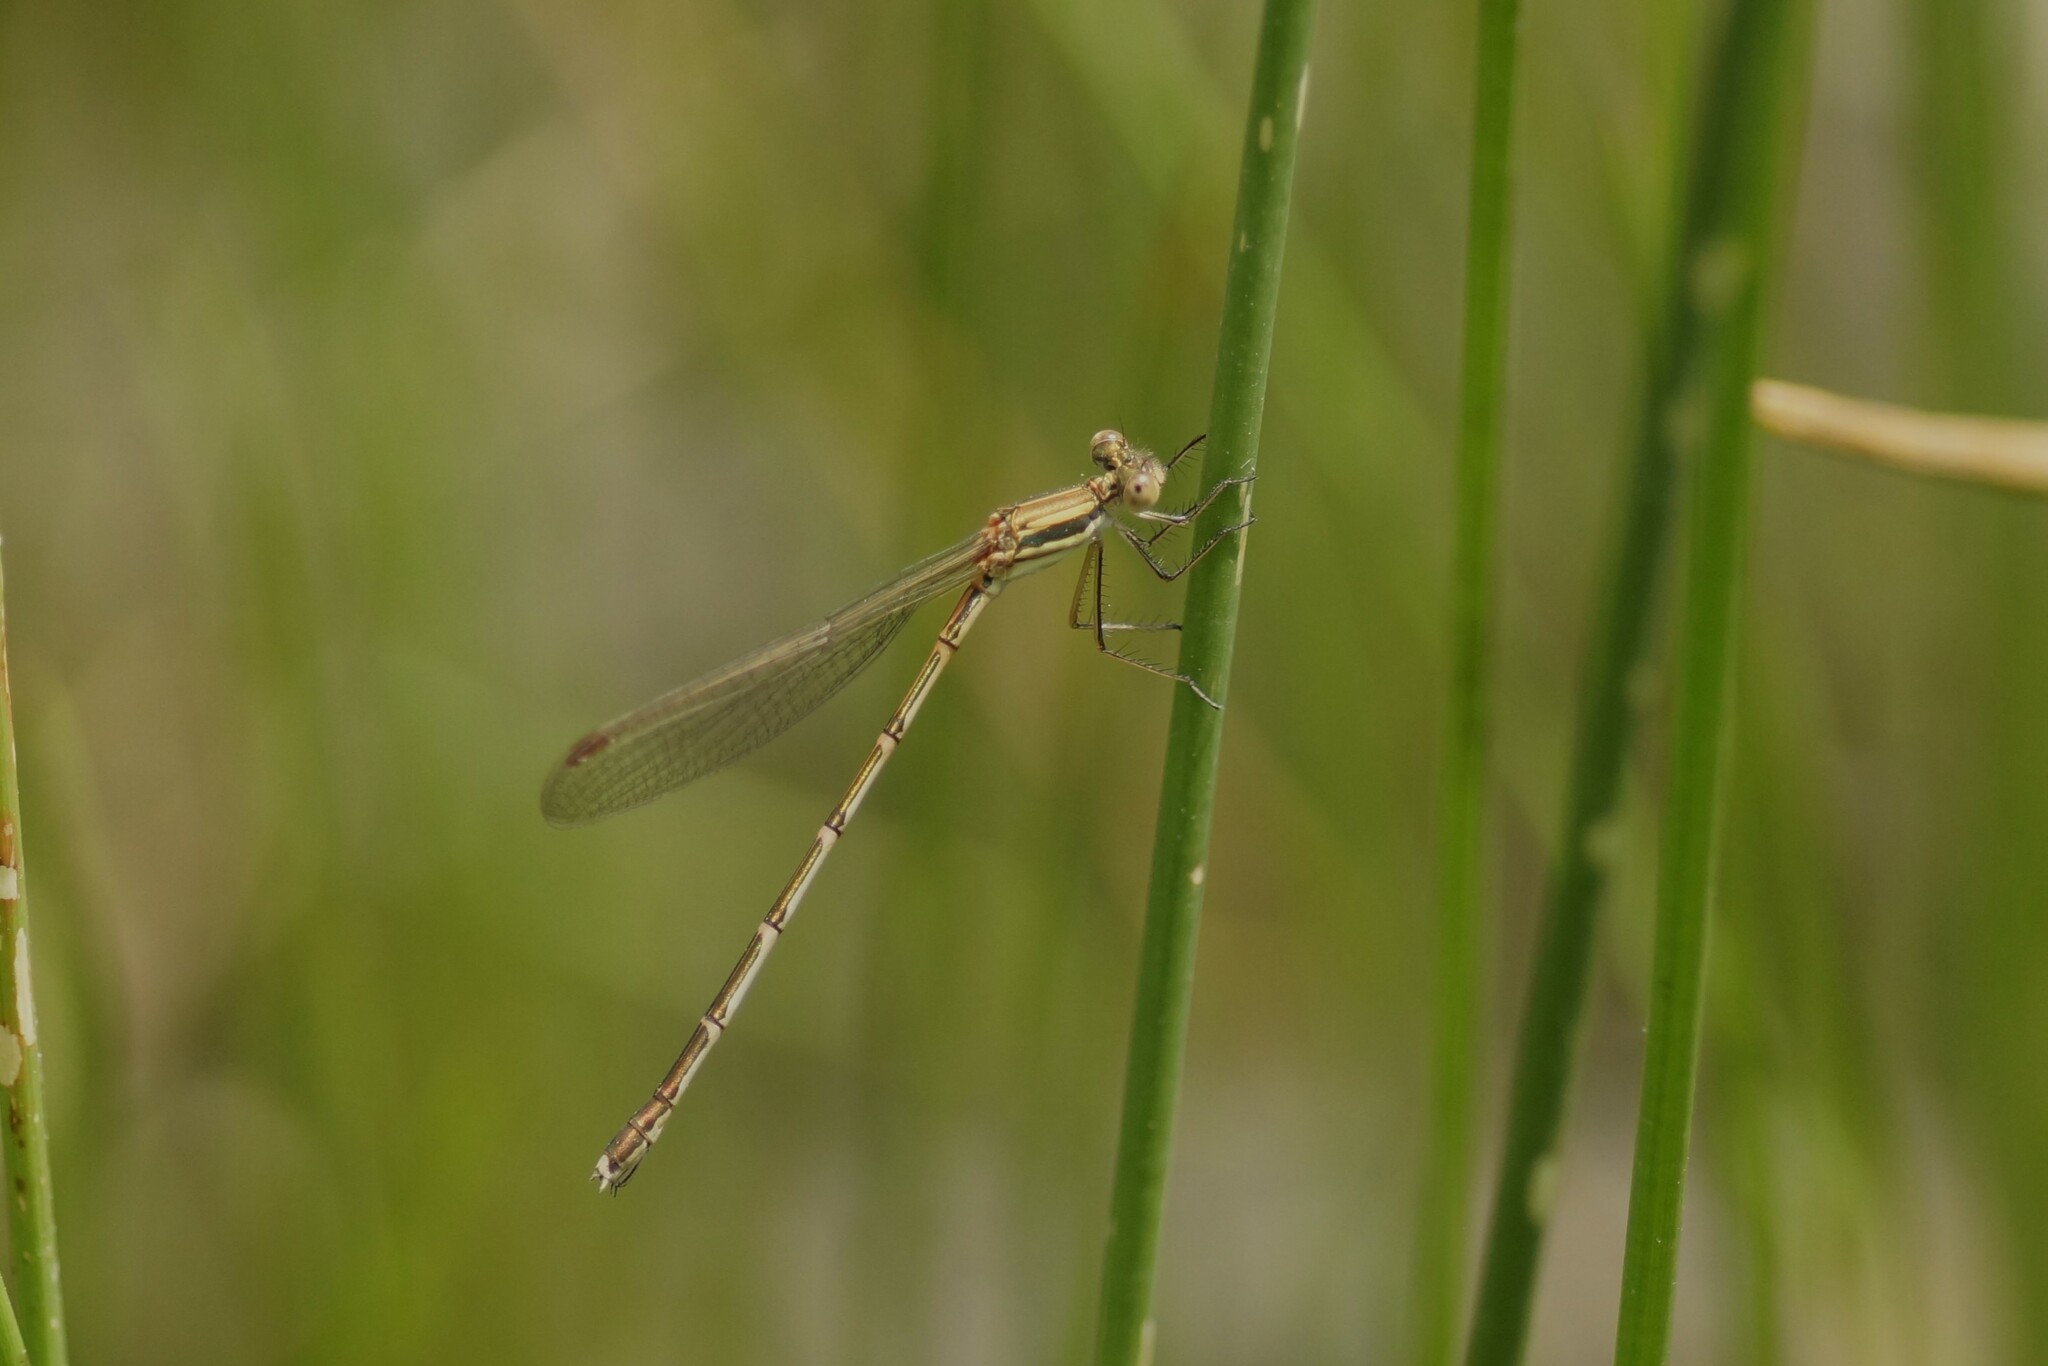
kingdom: Animalia
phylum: Arthropoda
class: Insecta
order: Odonata
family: Lestidae
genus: Austrolestes
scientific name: Austrolestes analis
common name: Slender ringtail
